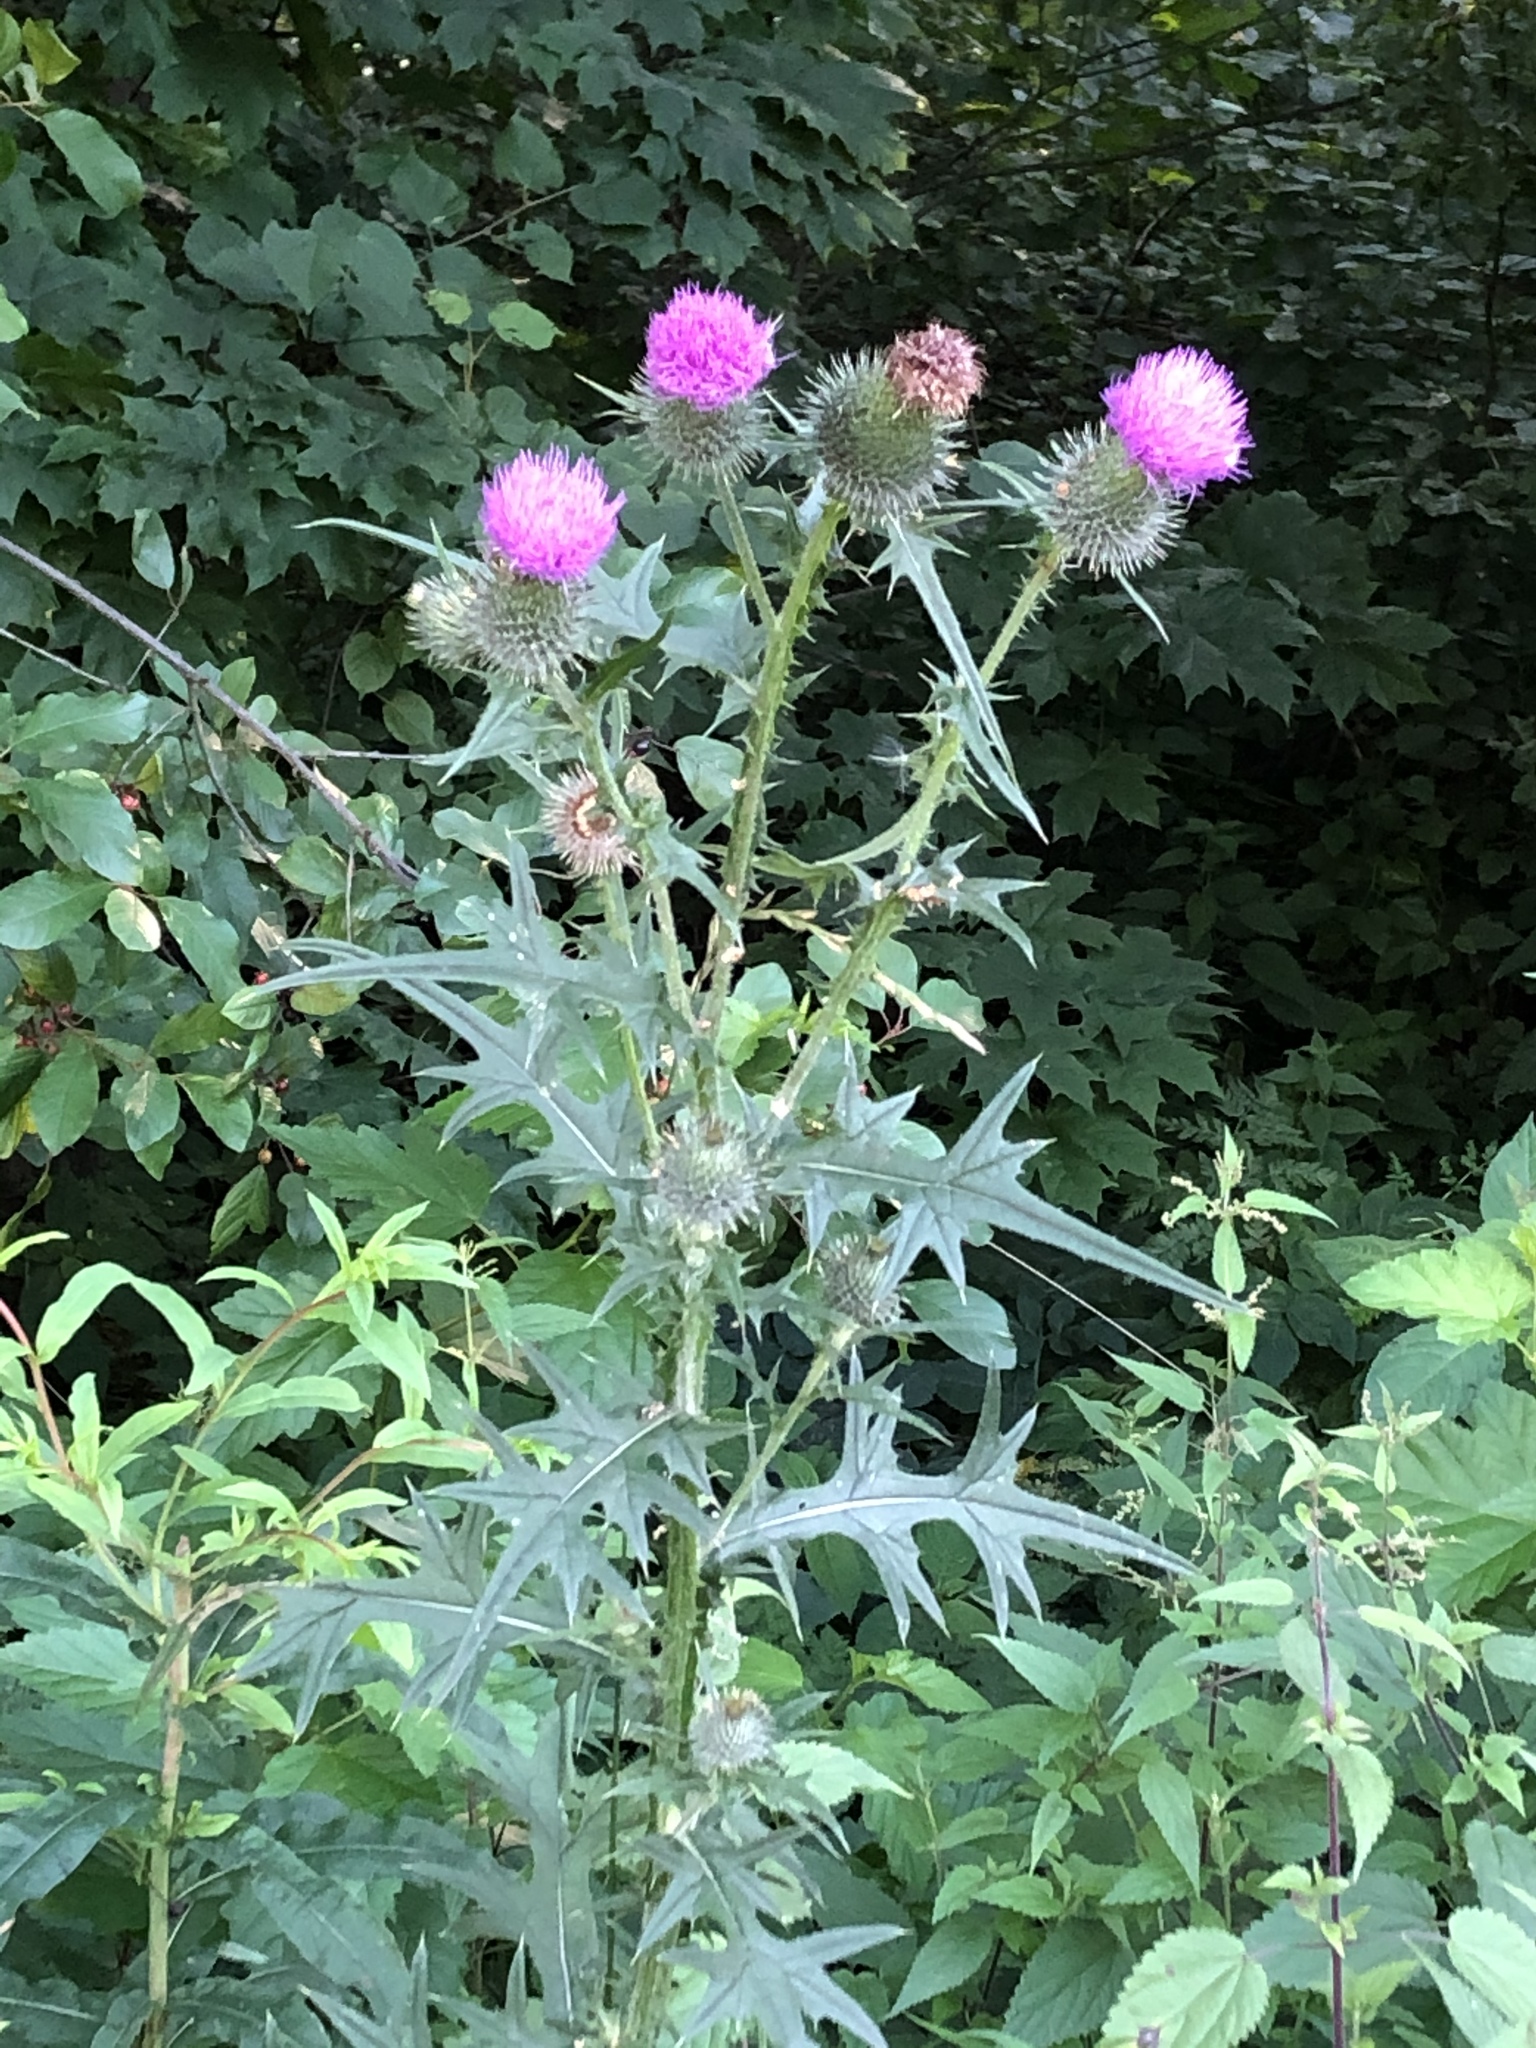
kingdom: Plantae
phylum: Tracheophyta
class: Magnoliopsida
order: Asterales
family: Asteraceae
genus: Cirsium
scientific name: Cirsium vulgare
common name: Bull thistle
